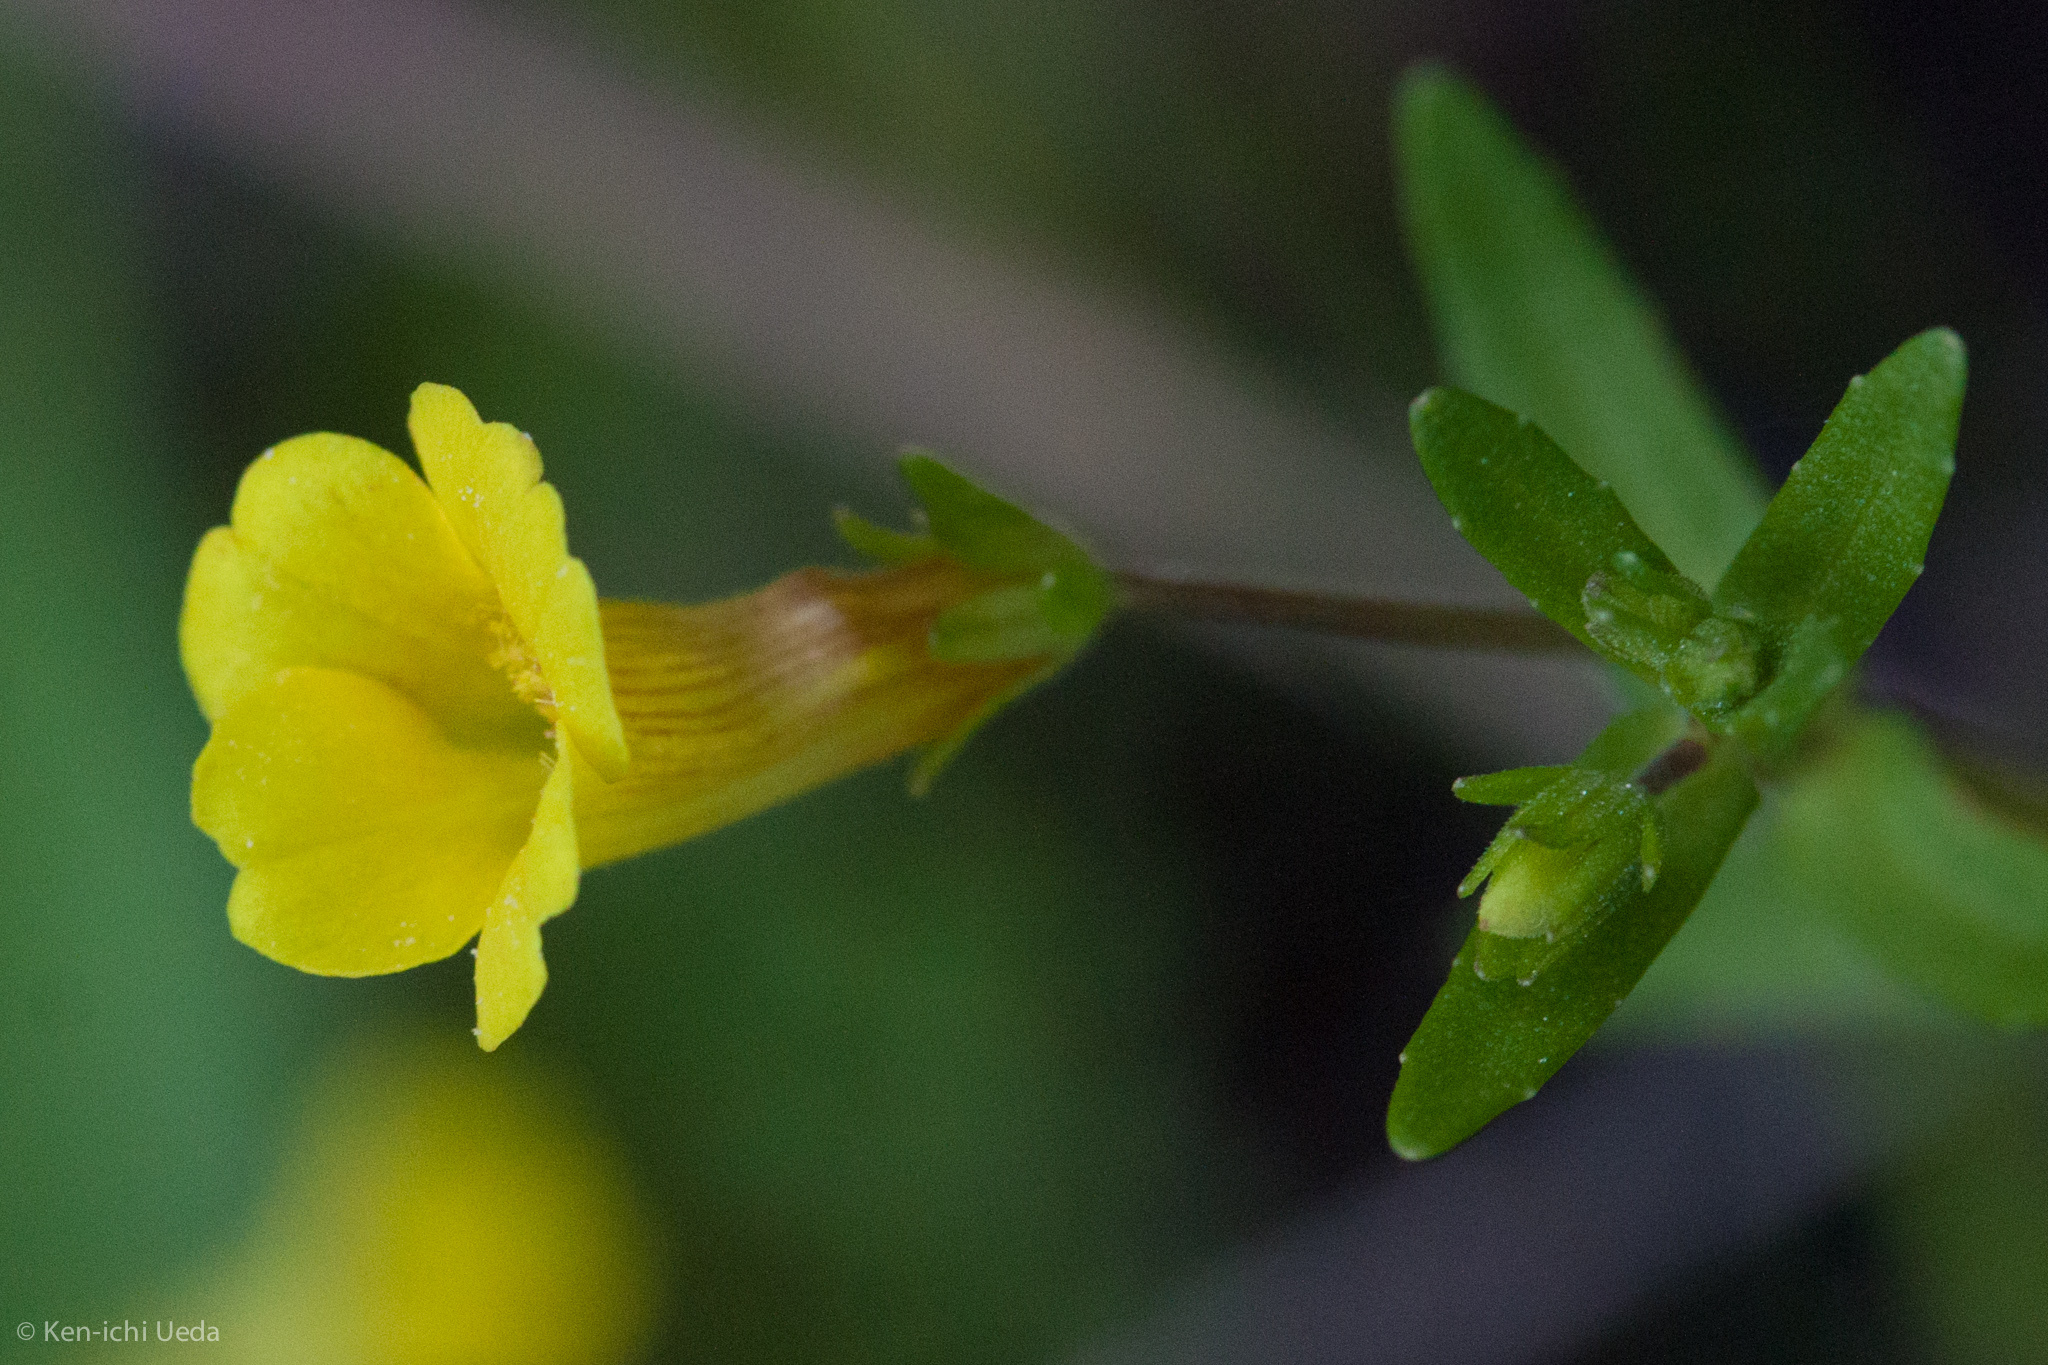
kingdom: Plantae
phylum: Tracheophyta
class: Magnoliopsida
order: Lamiales
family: Plantaginaceae
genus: Gratiola
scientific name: Gratiola lutea
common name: Golden hedge-hyssop
